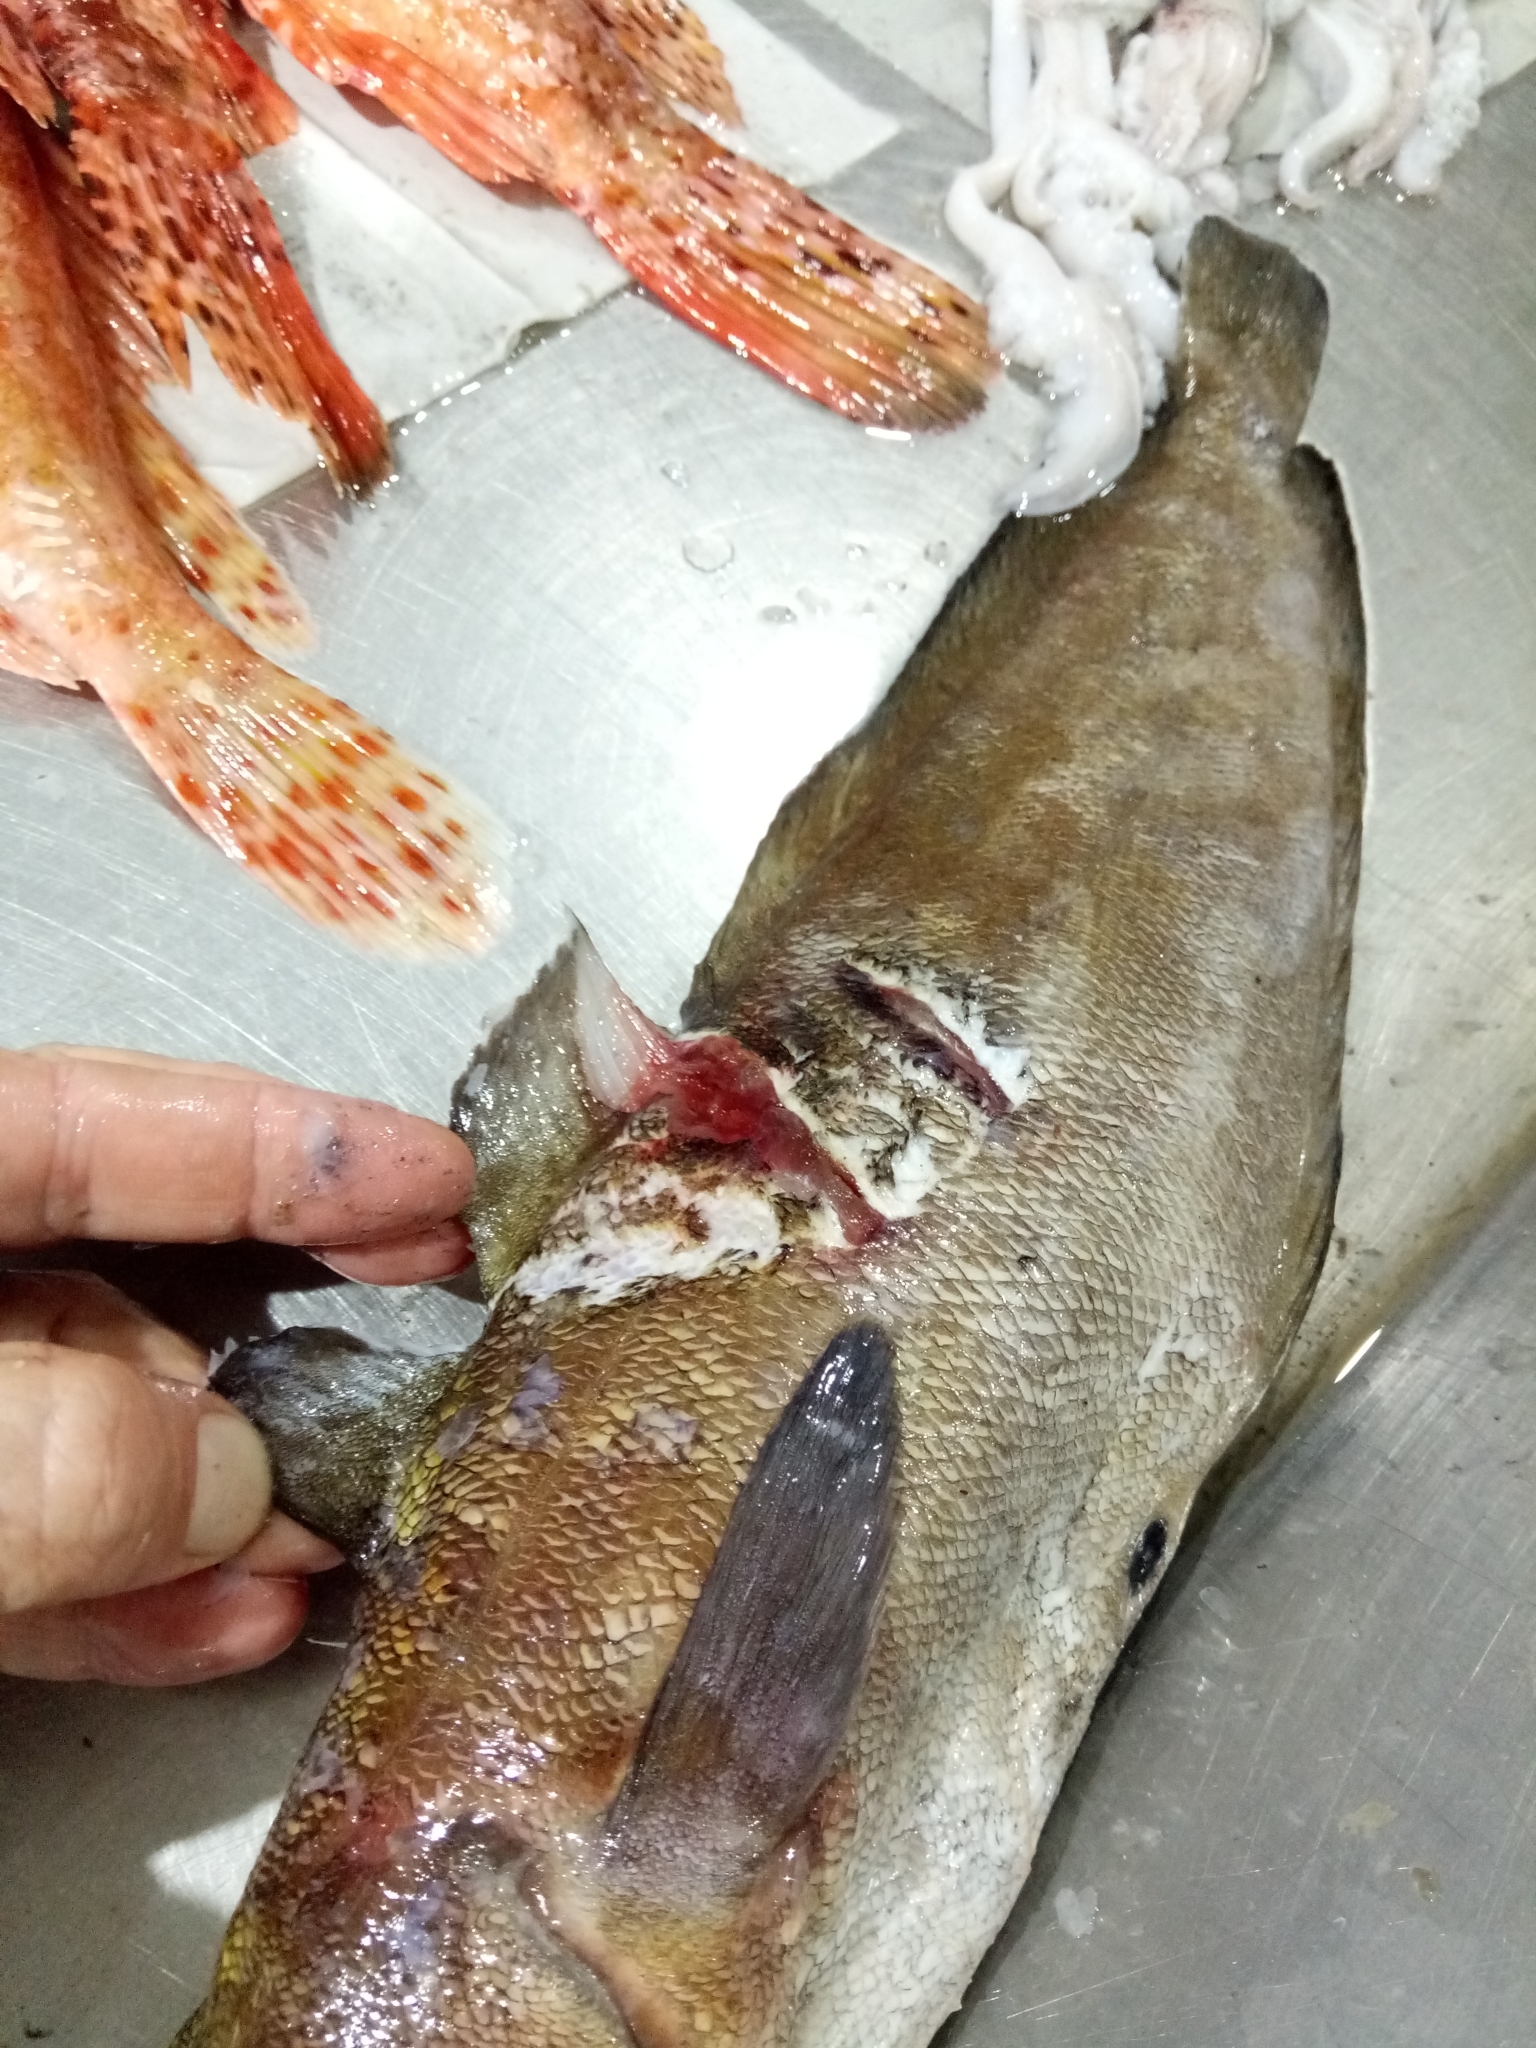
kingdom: Animalia
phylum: Chordata
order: Gadiformes
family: Phycidae
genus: Phycis
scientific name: Phycis phycis
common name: Forkbeard
